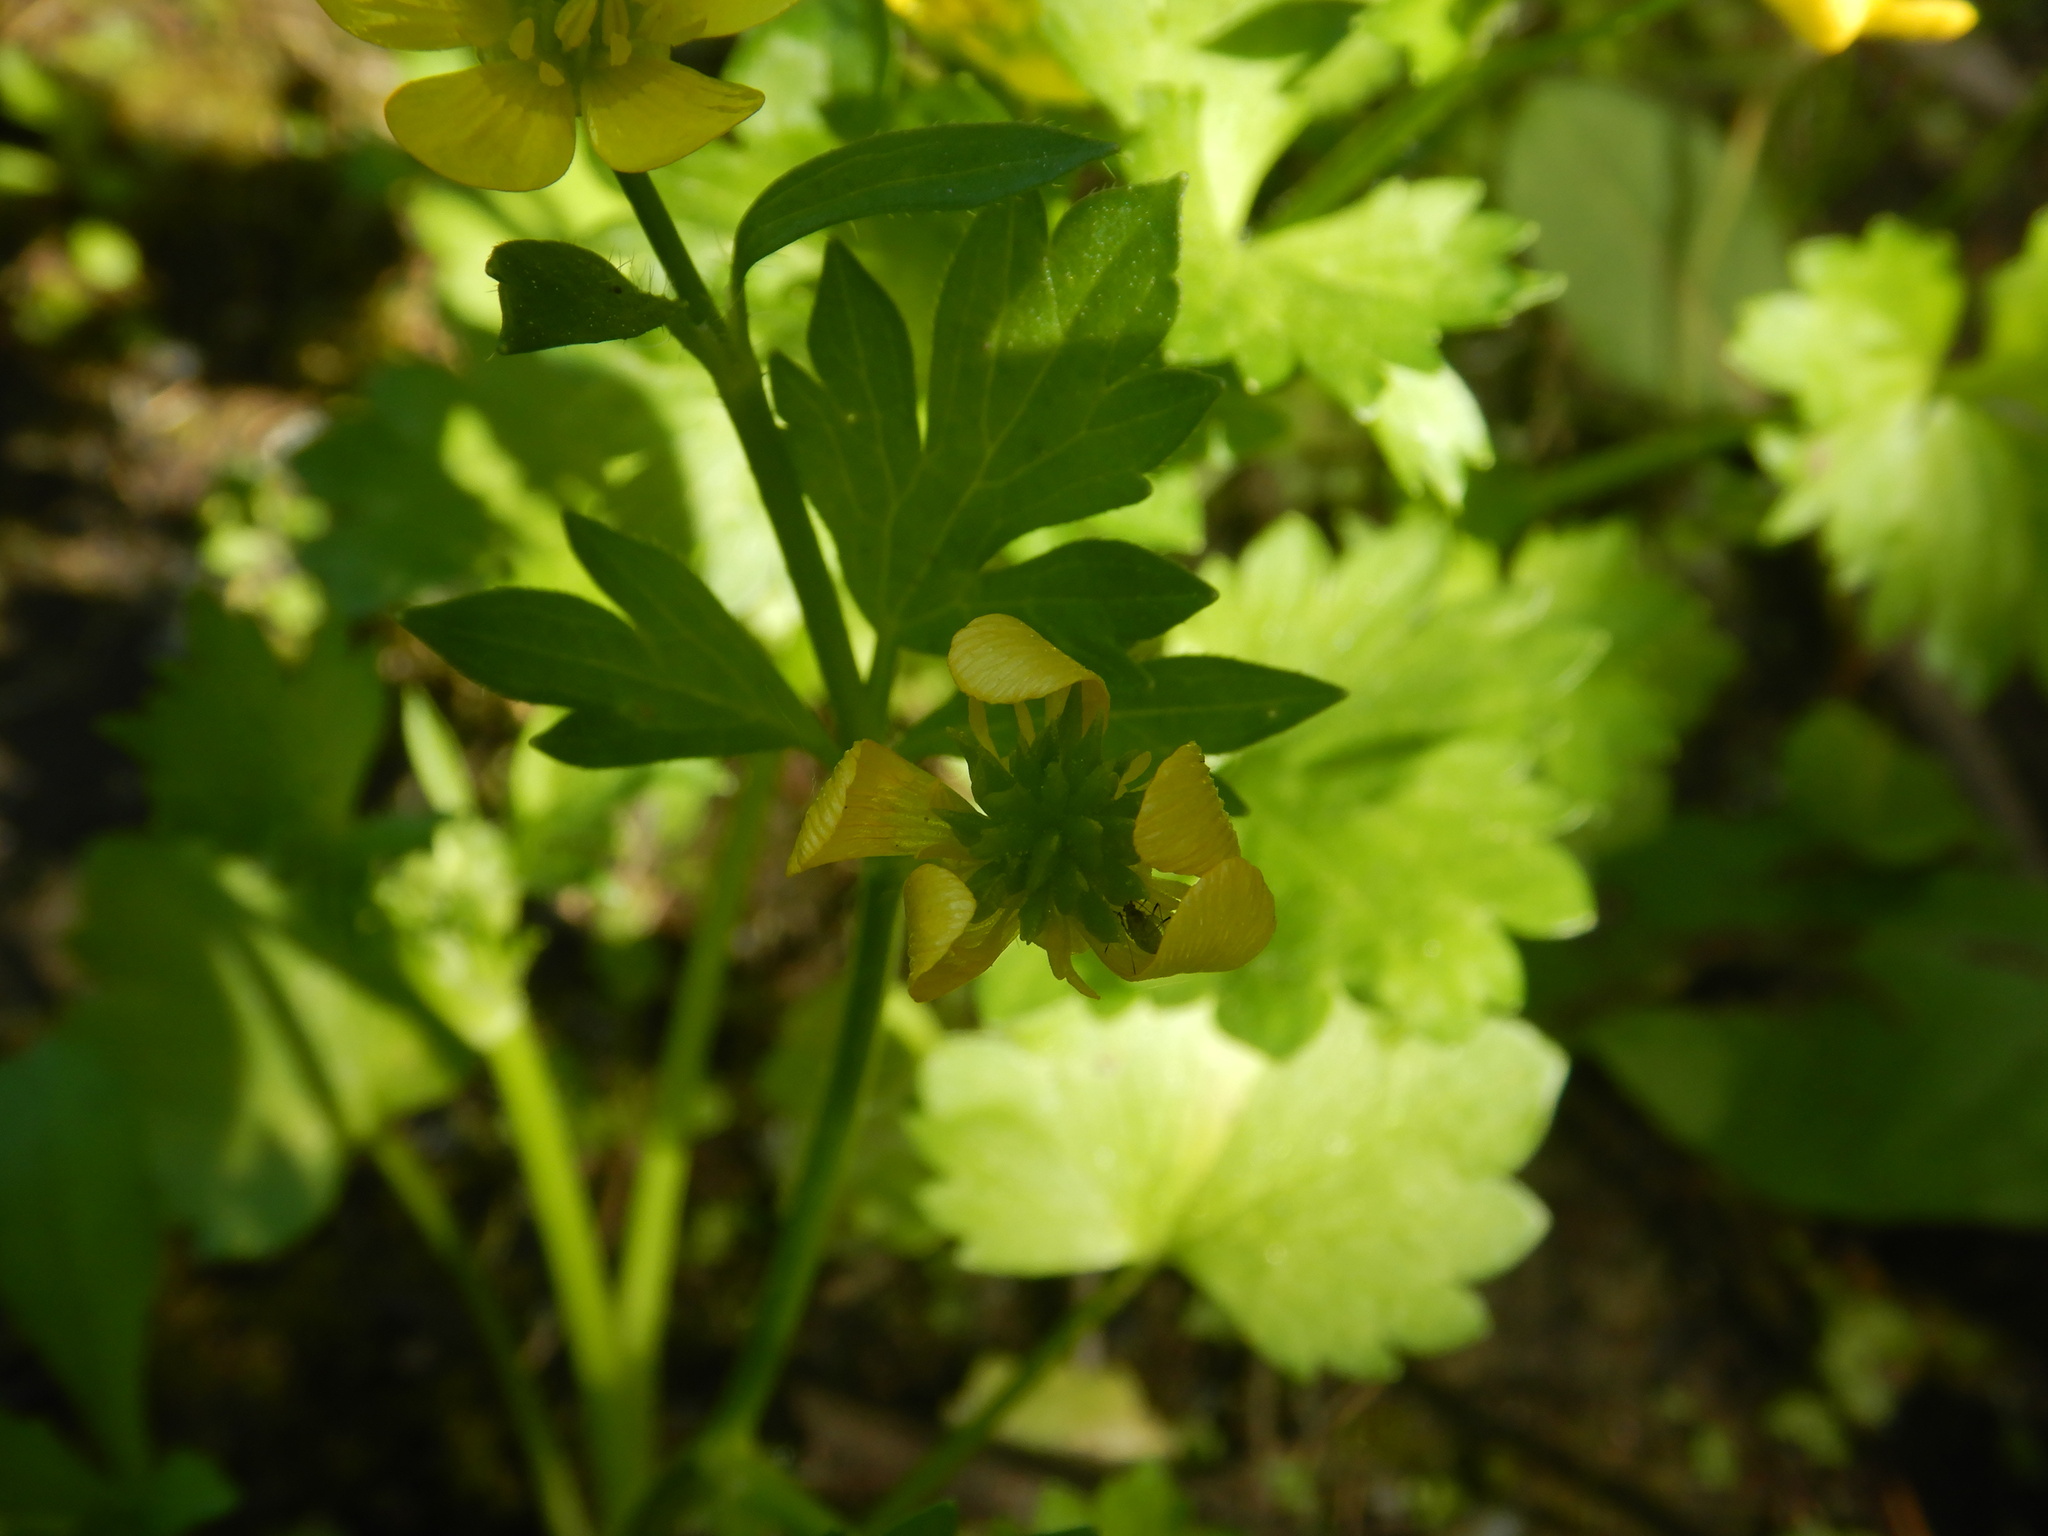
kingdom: Plantae
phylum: Tracheophyta
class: Magnoliopsida
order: Ranunculales
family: Ranunculaceae
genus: Ranunculus
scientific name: Ranunculus muricatus
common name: Rough-fruited buttercup
